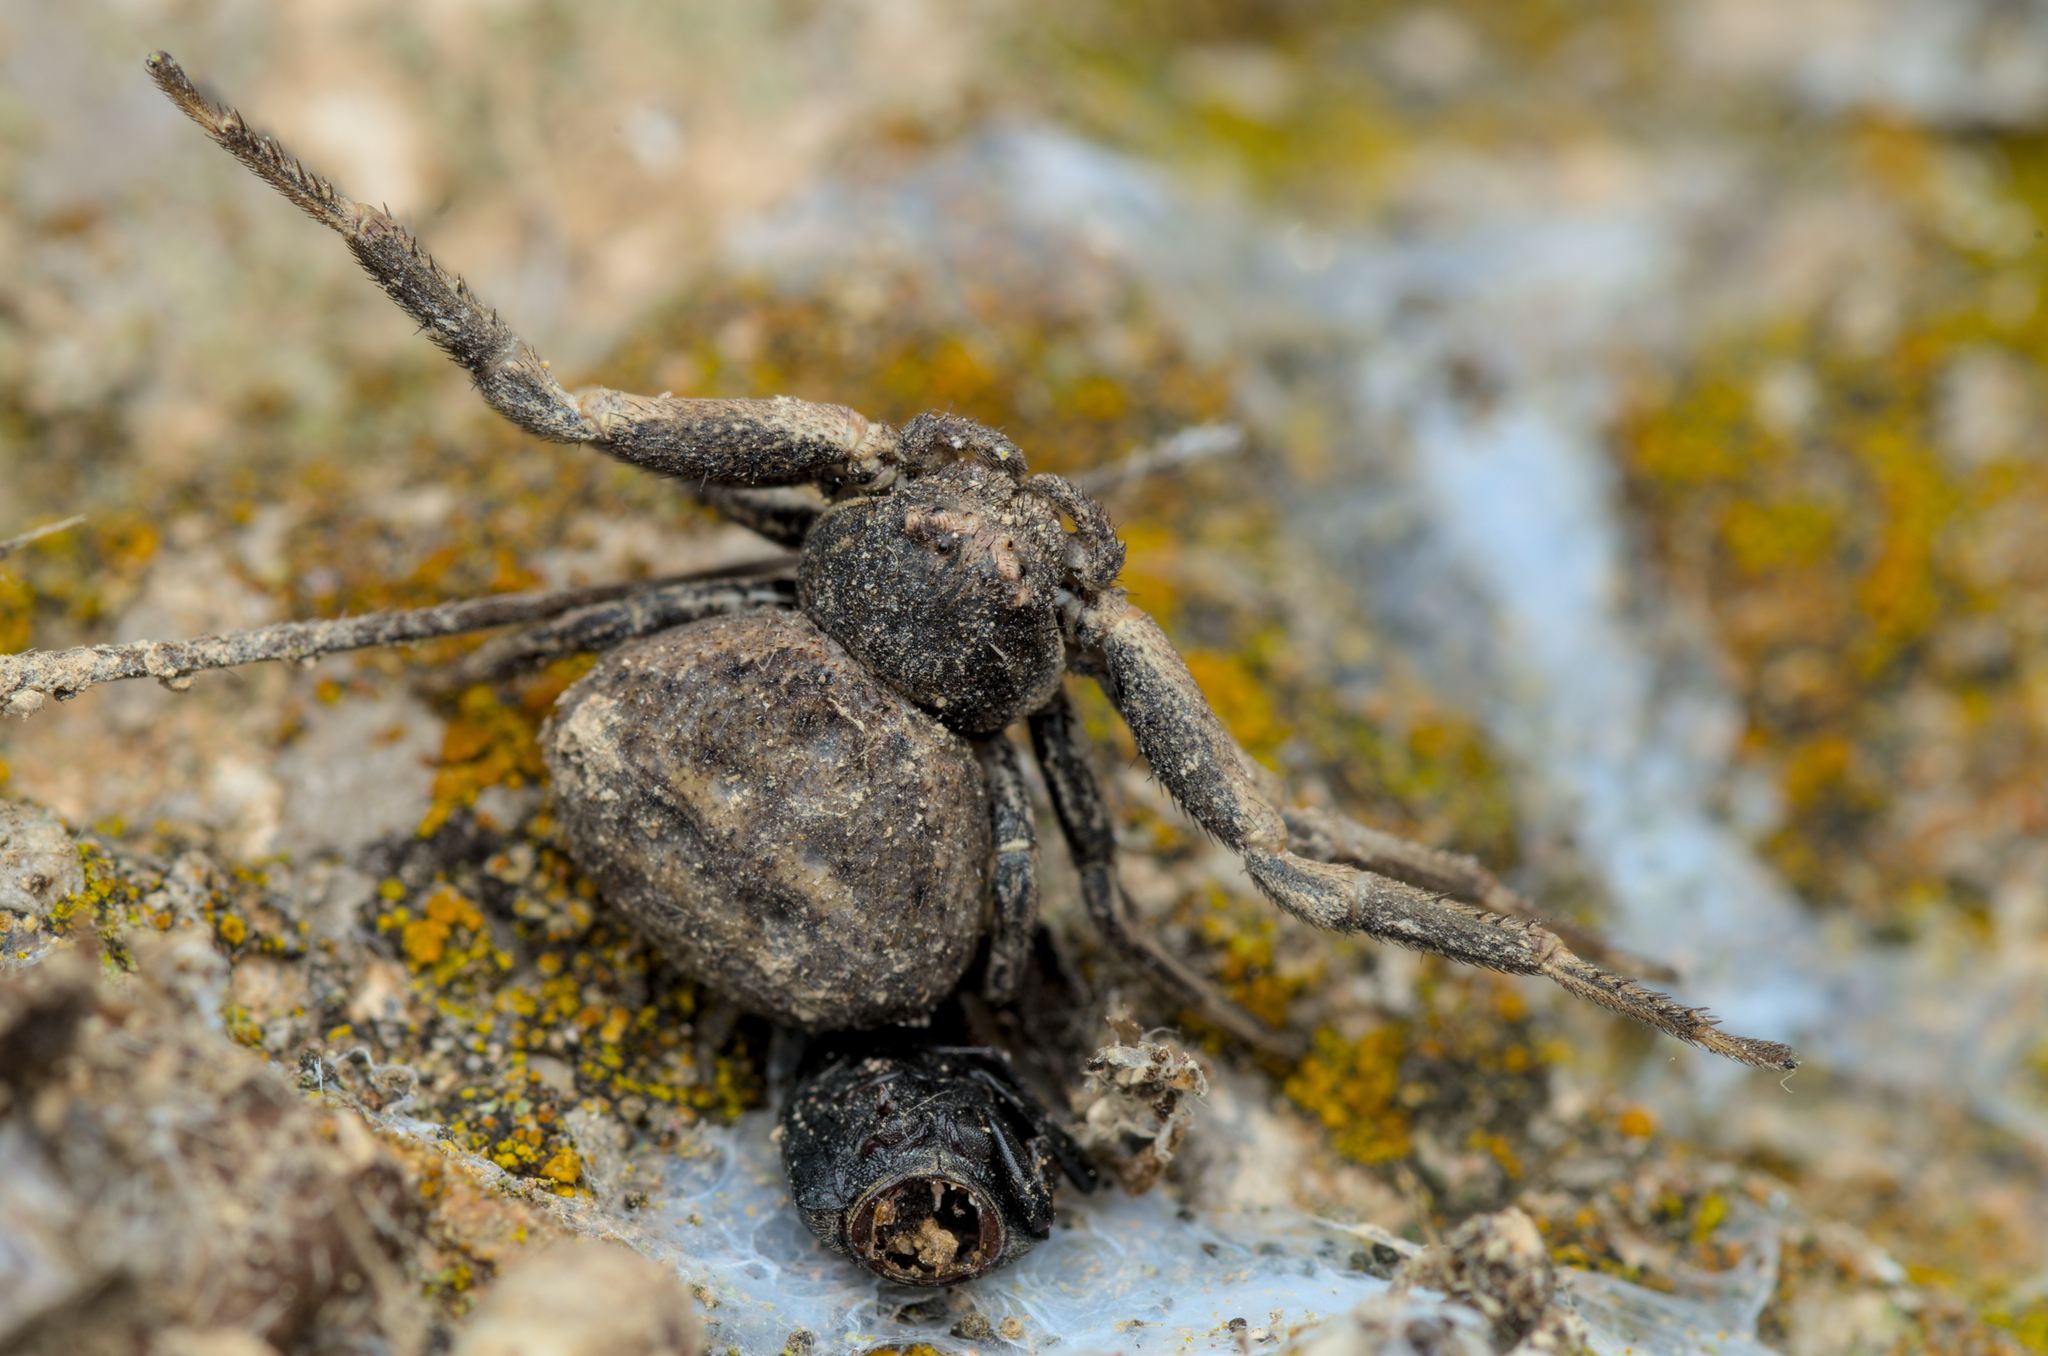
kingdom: Animalia
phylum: Arthropoda
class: Arachnida
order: Araneae
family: Thomisidae
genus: Bassaniodes
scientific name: Bassaniodes bufo
